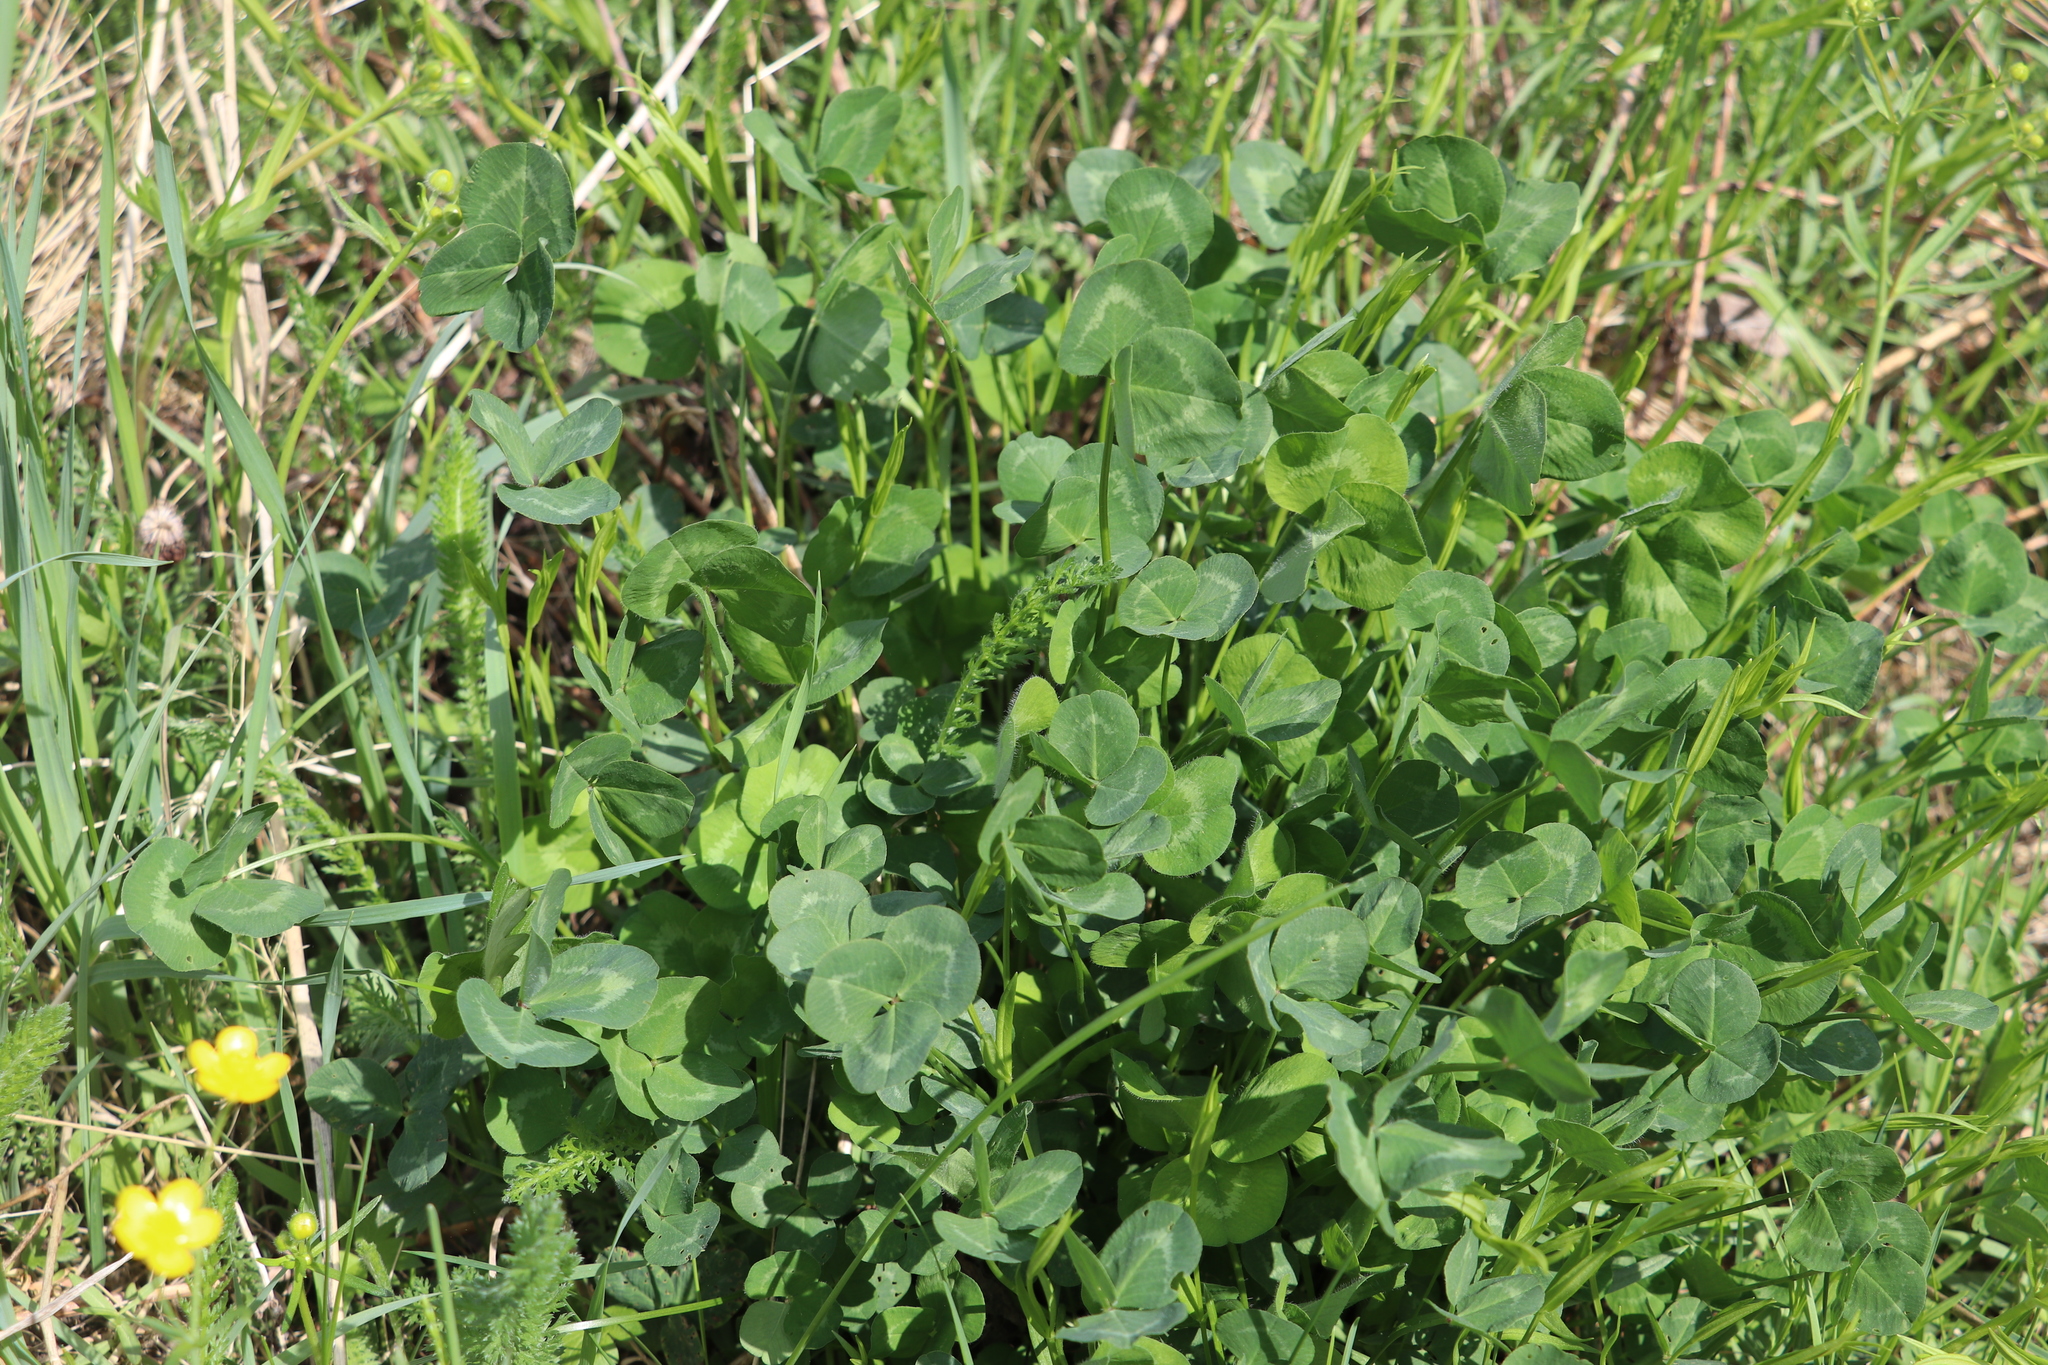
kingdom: Plantae
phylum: Tracheophyta
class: Magnoliopsida
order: Fabales
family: Fabaceae
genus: Trifolium
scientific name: Trifolium pratense
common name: Red clover
